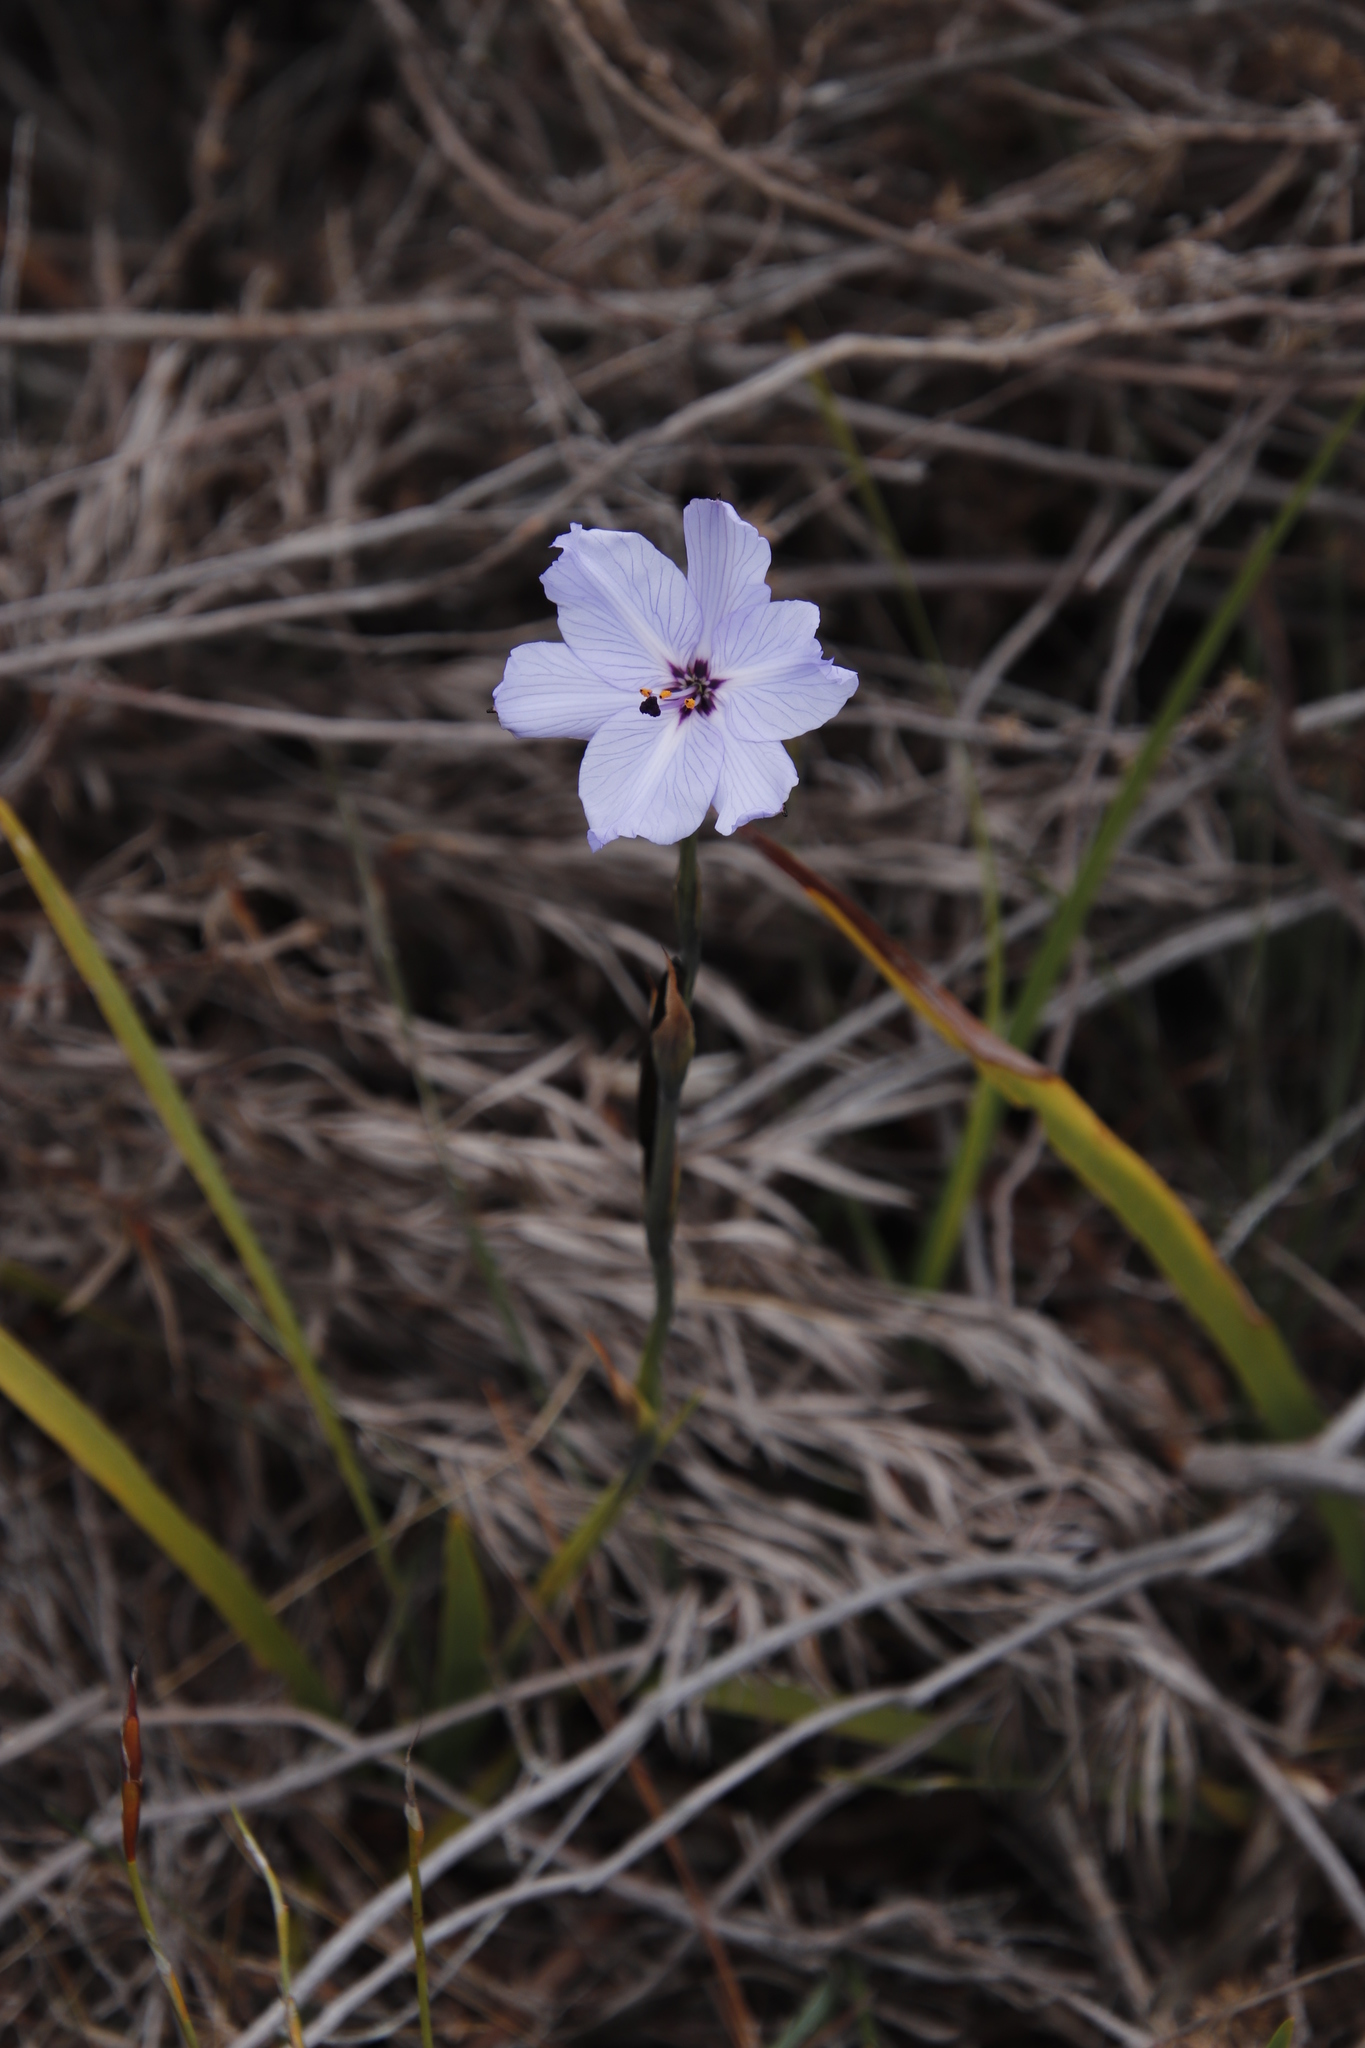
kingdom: Plantae
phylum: Tracheophyta
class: Liliopsida
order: Asparagales
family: Iridaceae
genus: Aristea
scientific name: Aristea spiralis
